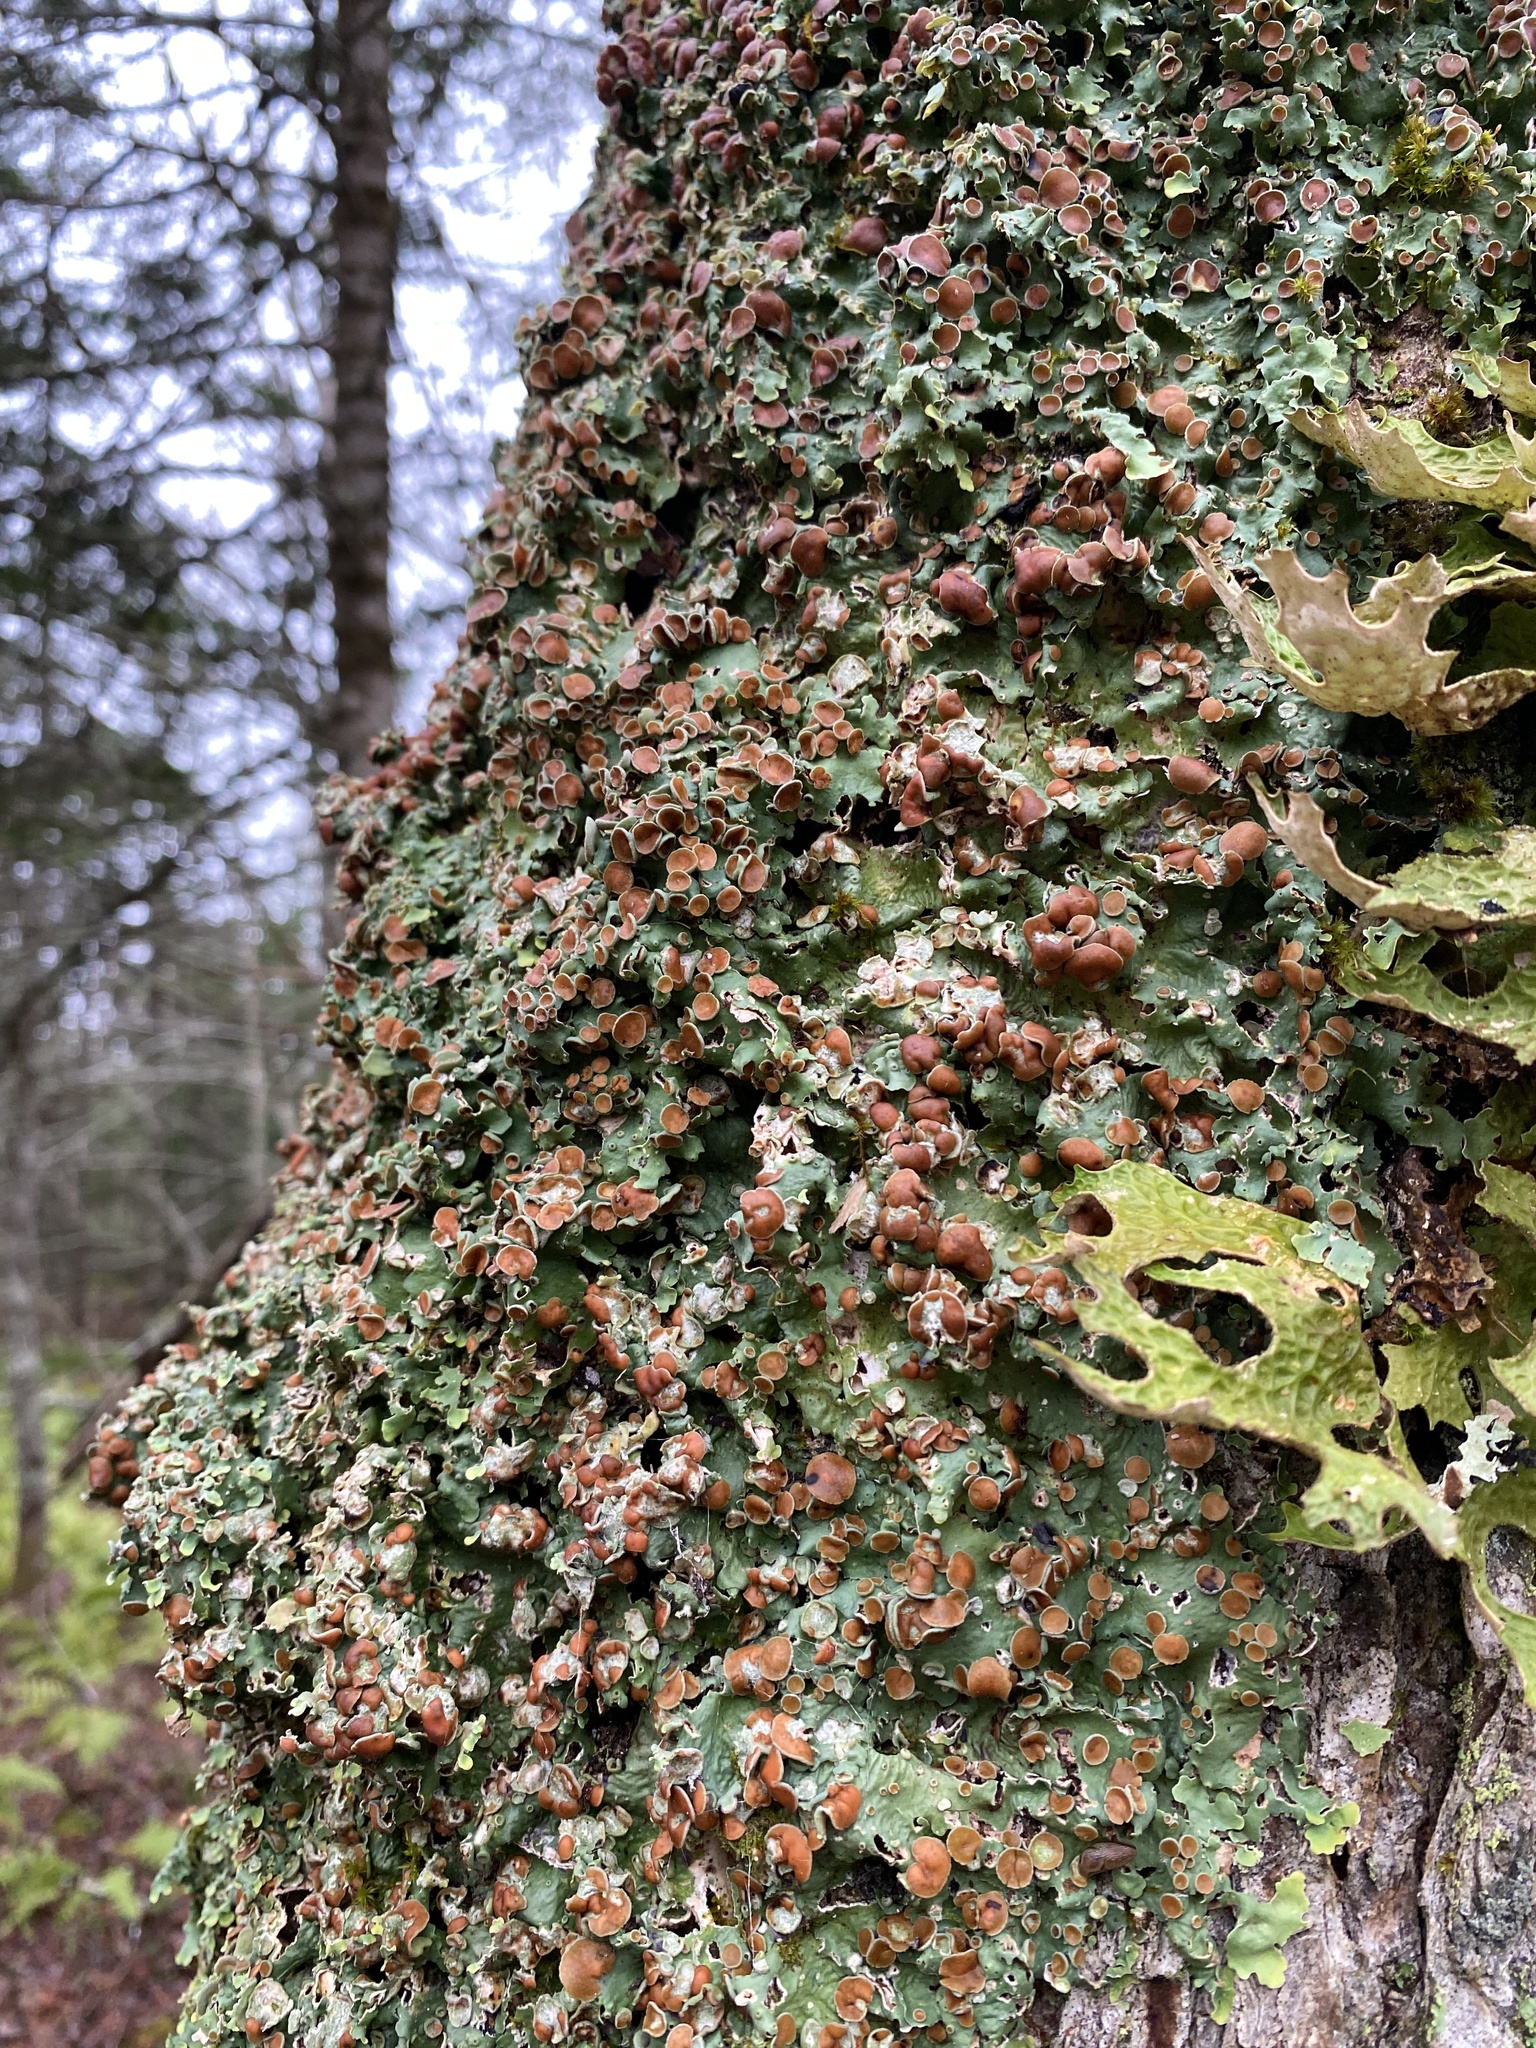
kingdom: Fungi
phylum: Ascomycota
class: Lecanoromycetes
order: Peltigerales
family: Lobariaceae
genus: Ricasolia
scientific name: Ricasolia quercizans
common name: Smooth lungwort
